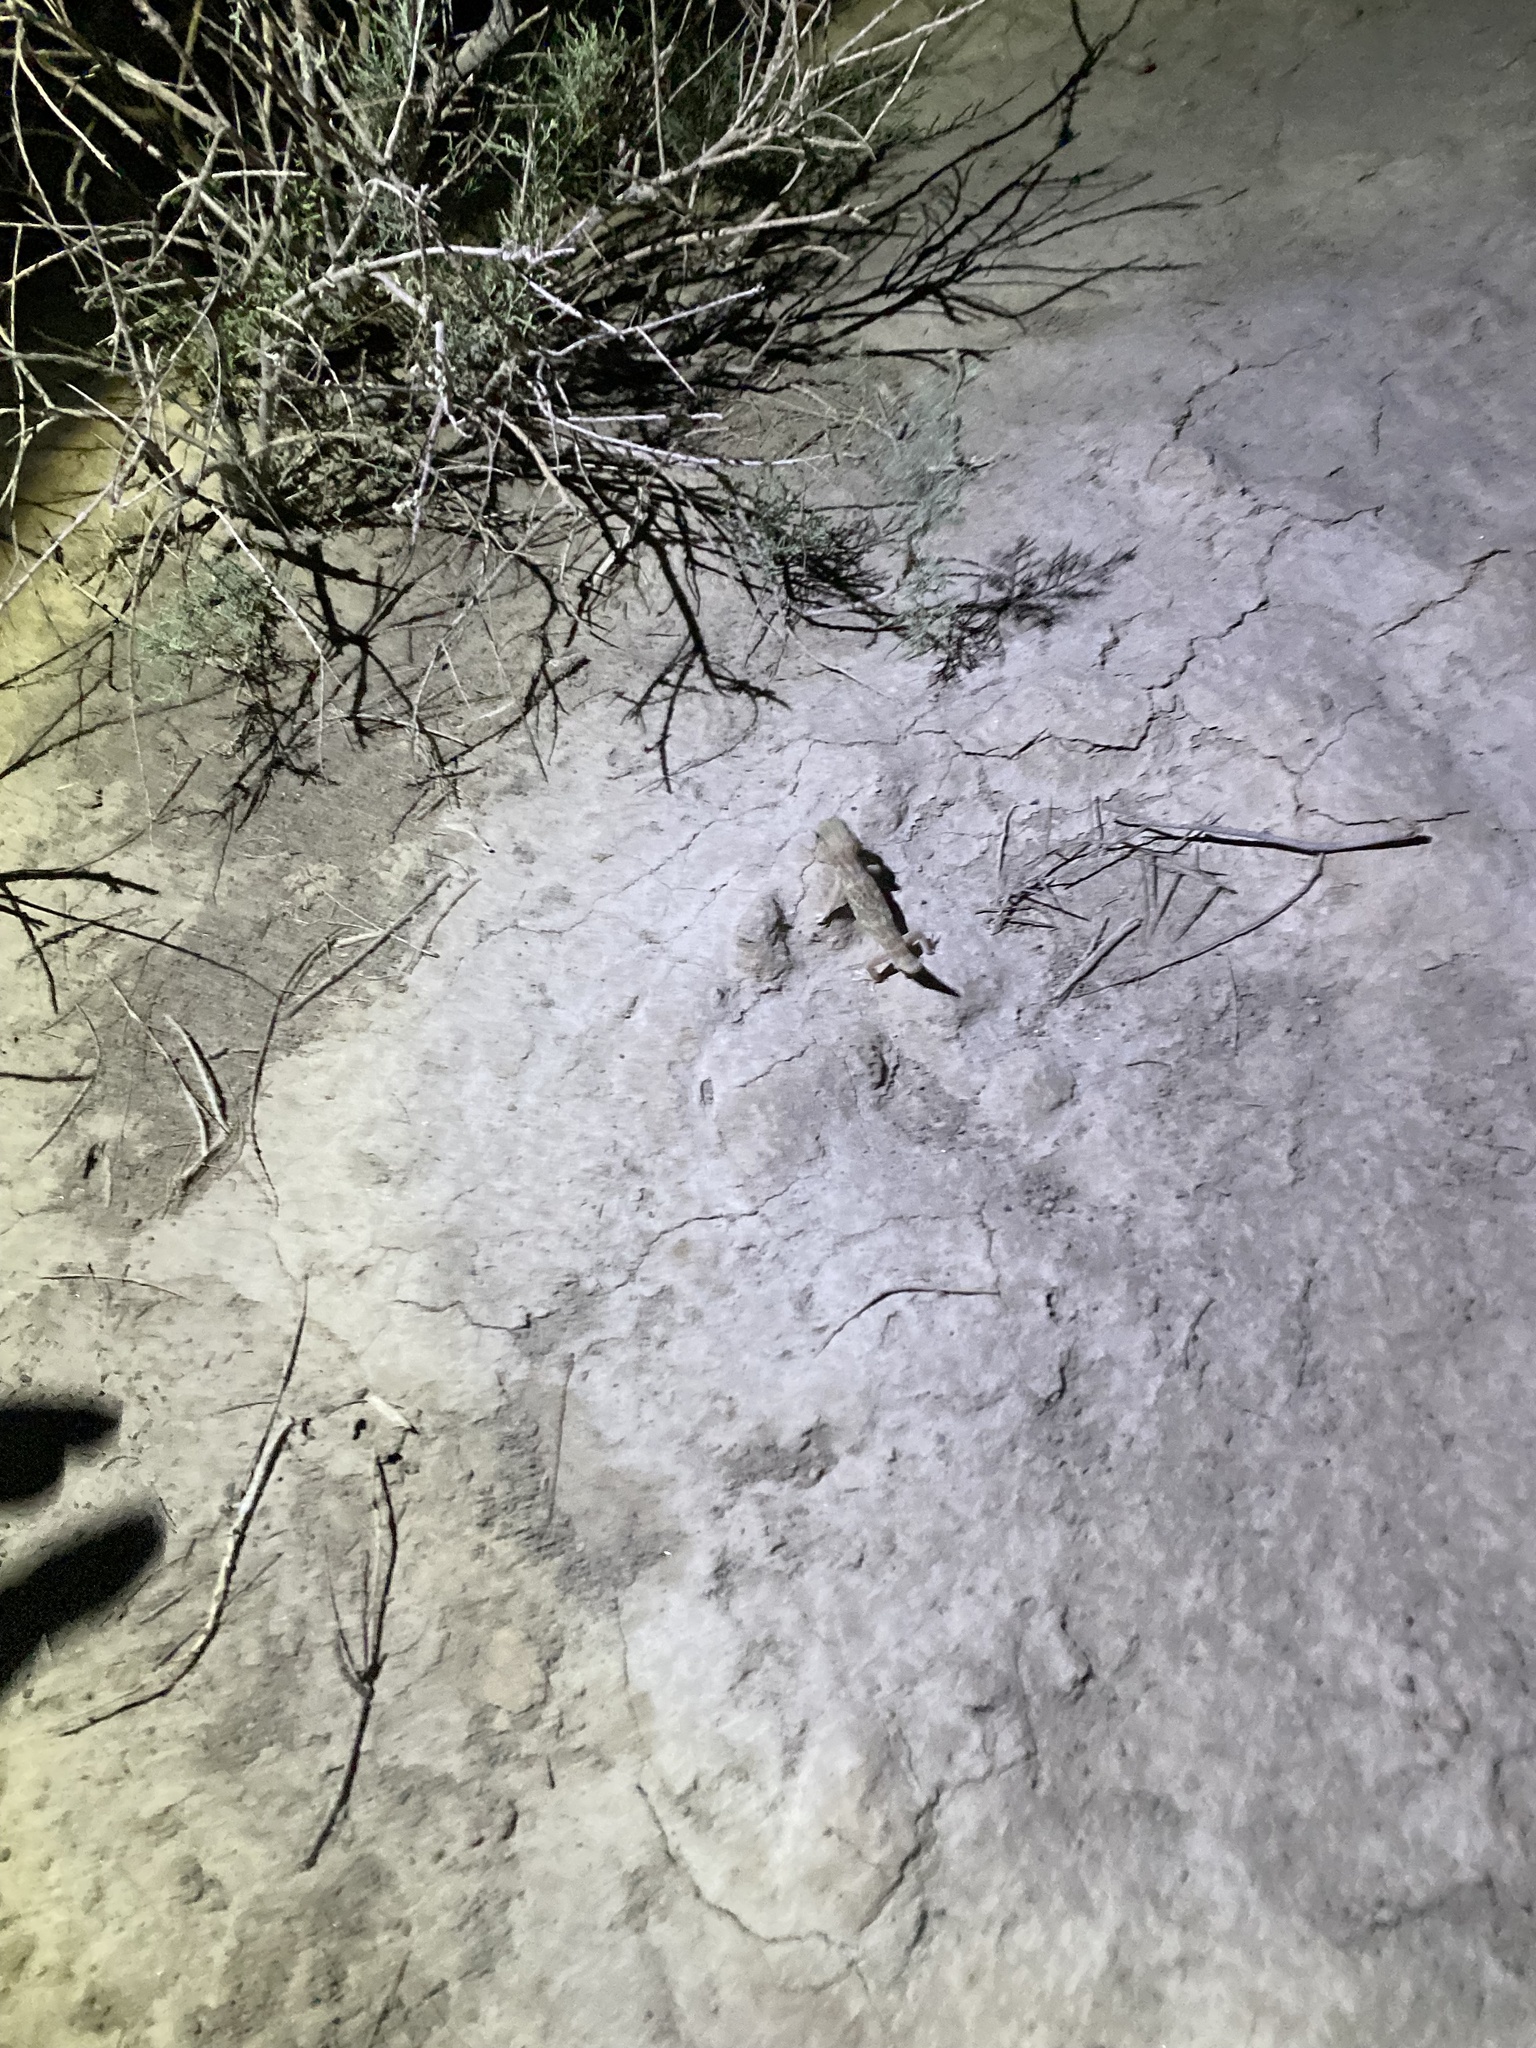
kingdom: Animalia
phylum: Chordata
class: Squamata
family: Sphaerodactylidae
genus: Teratoscincus
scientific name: Teratoscincus bedriagai
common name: Bedriaga's plate-tailed gecko
